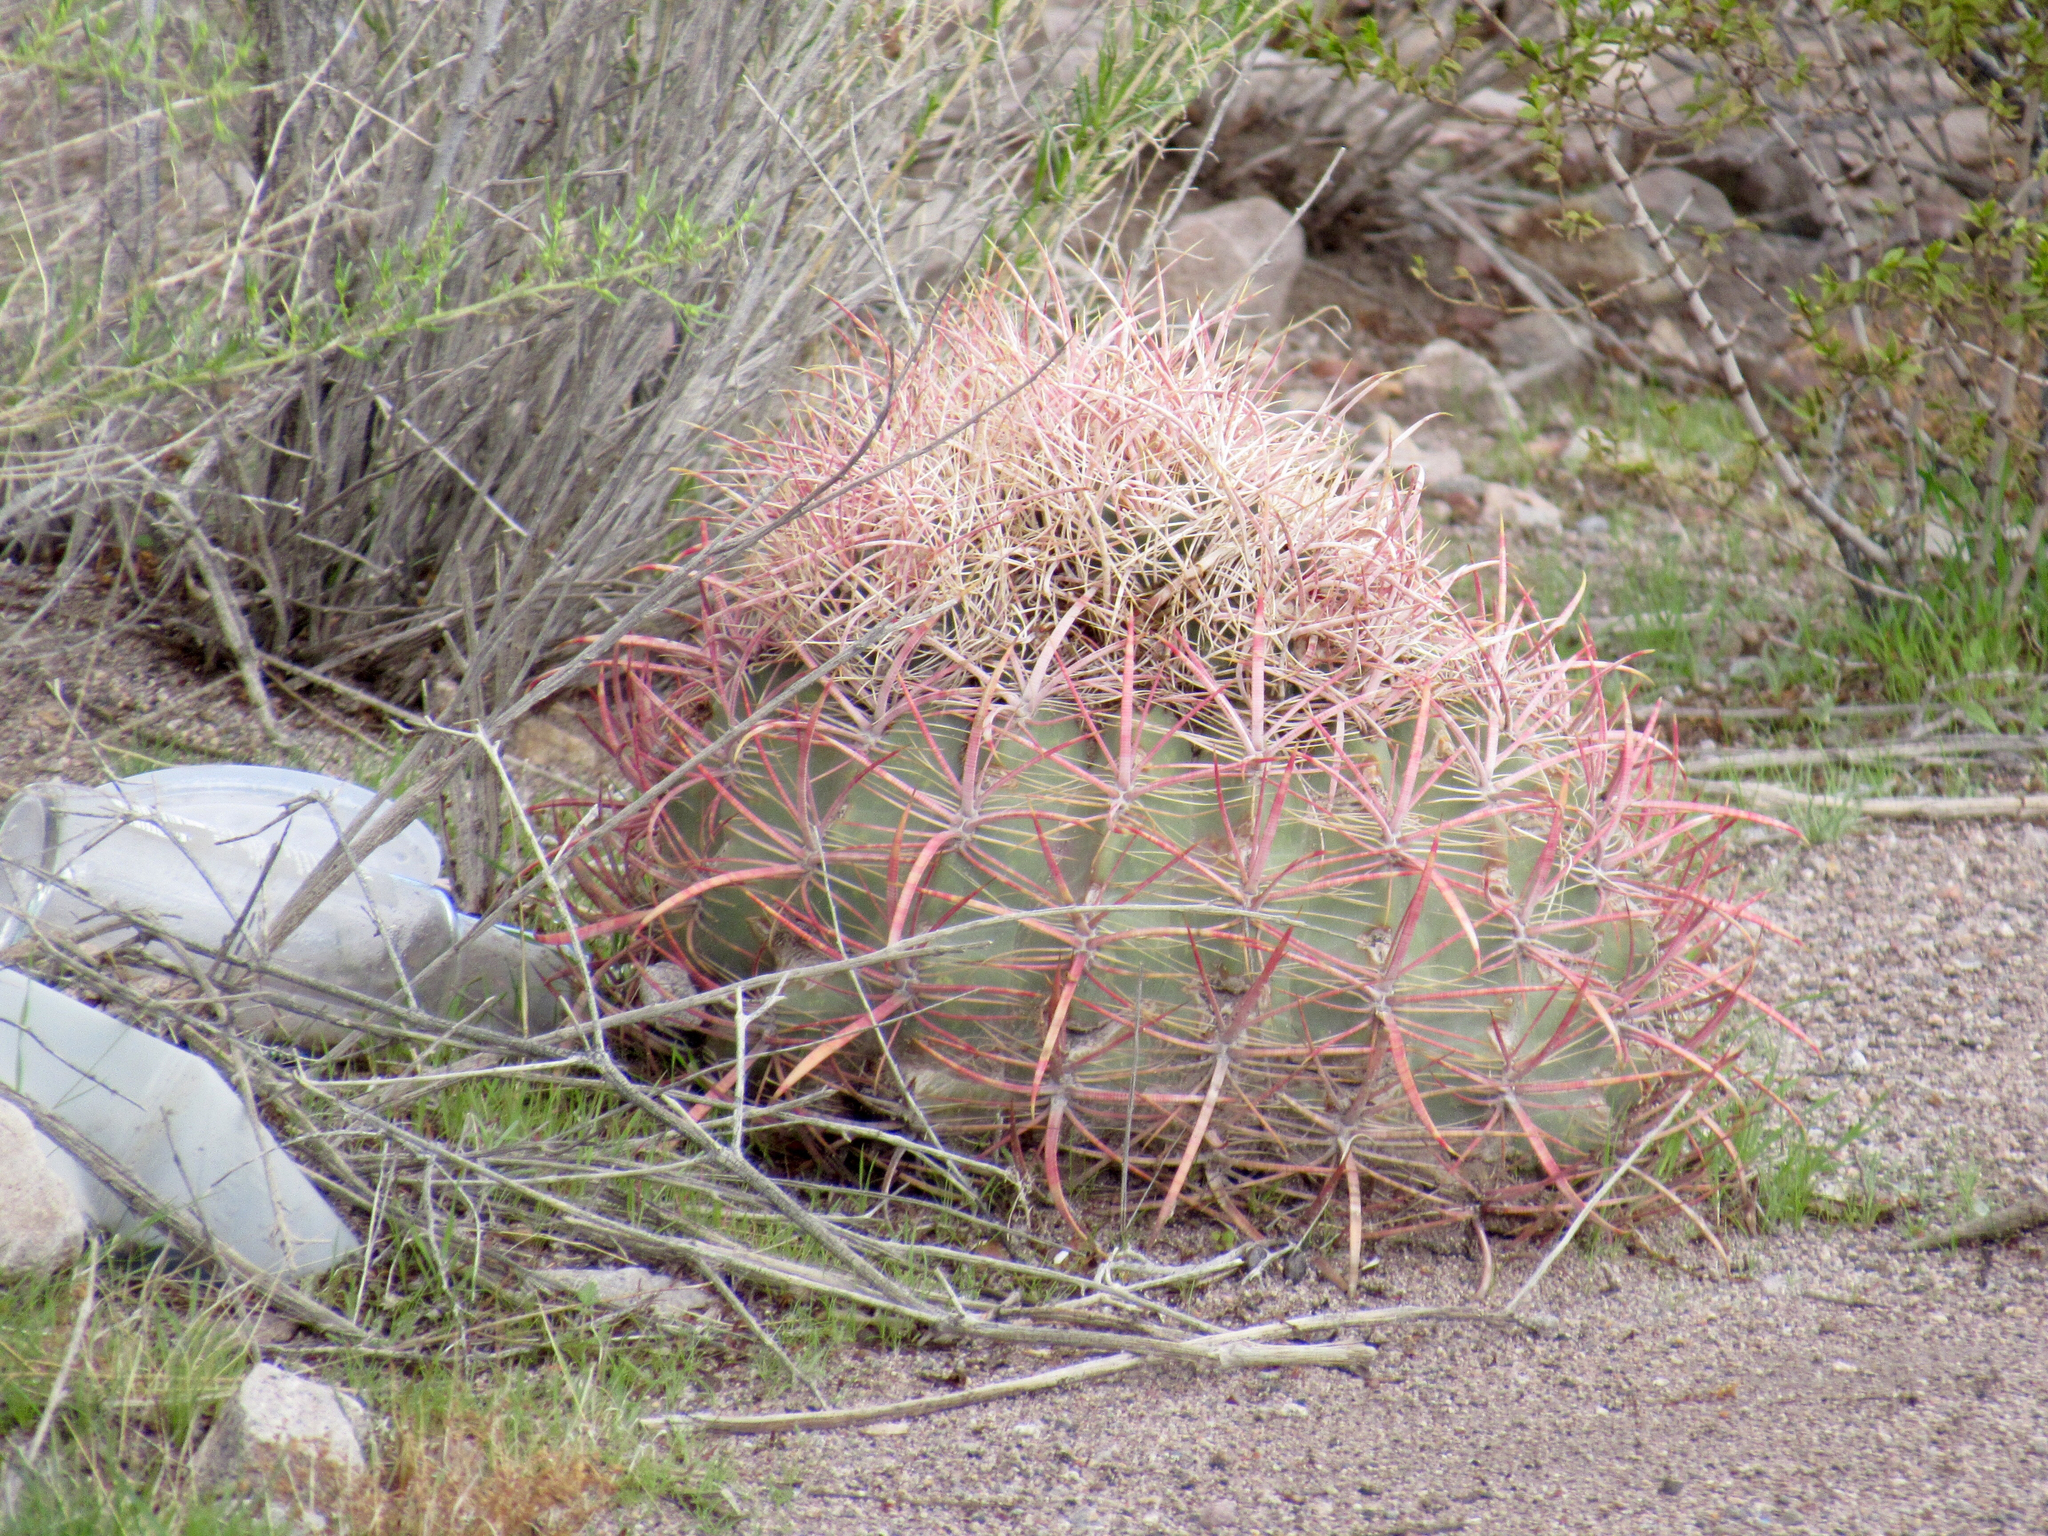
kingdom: Plantae
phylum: Tracheophyta
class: Magnoliopsida
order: Caryophyllales
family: Cactaceae
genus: Ferocactus
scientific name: Ferocactus cylindraceus
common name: California barrel cactus
